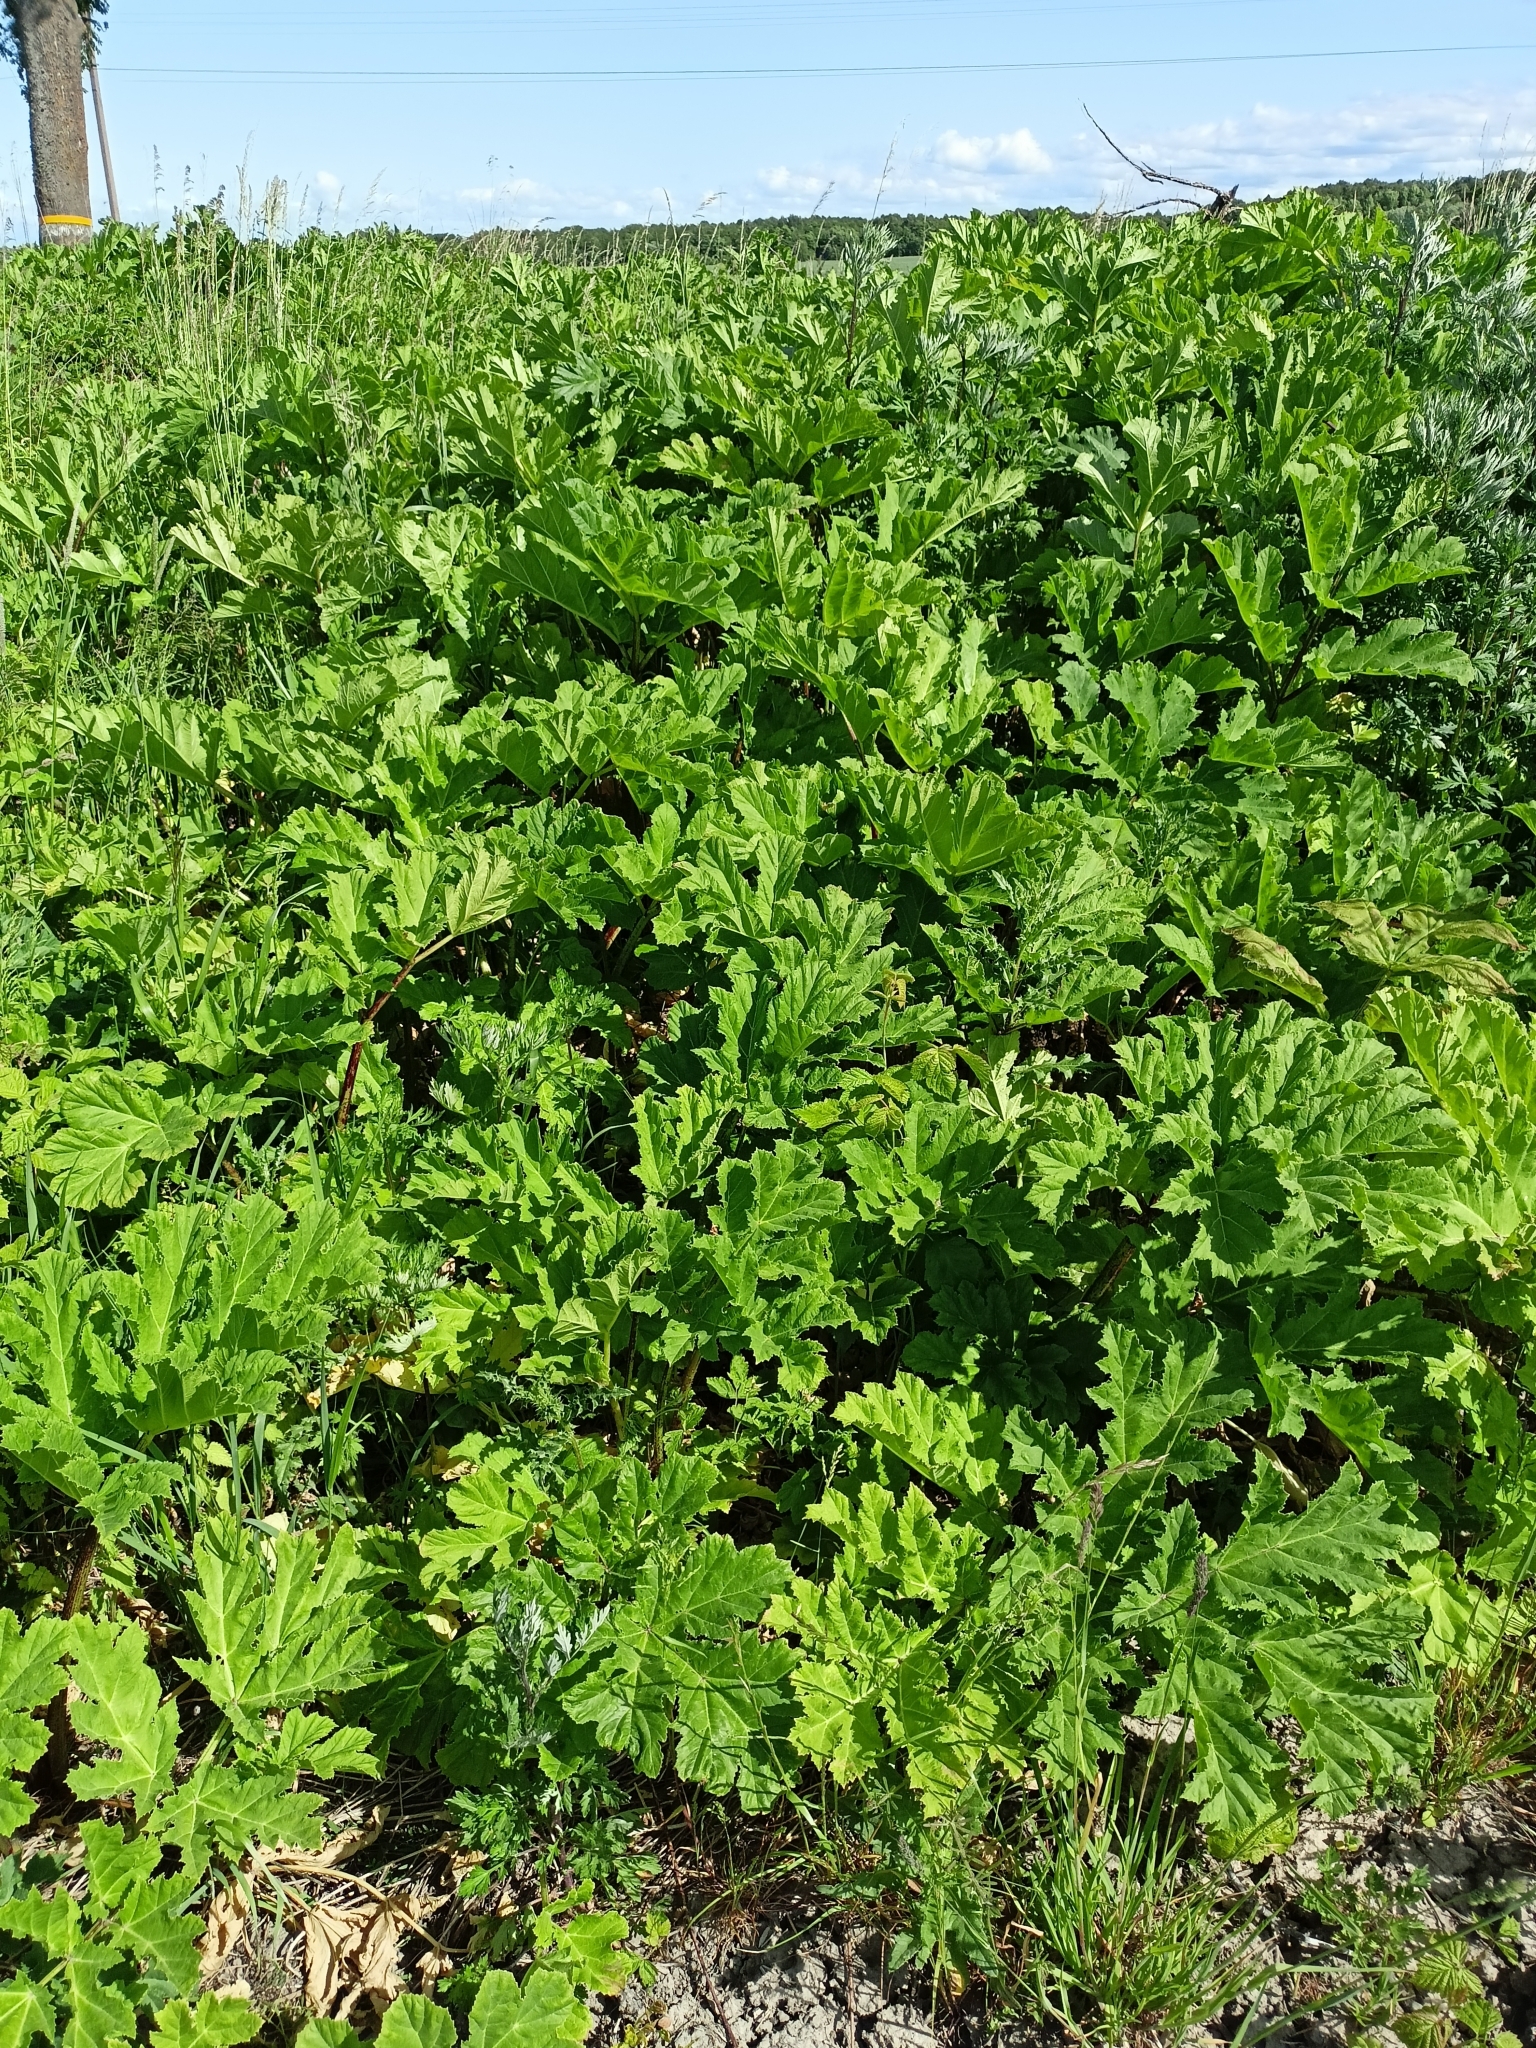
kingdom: Plantae
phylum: Tracheophyta
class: Magnoliopsida
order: Apiales
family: Apiaceae
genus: Heracleum
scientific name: Heracleum sosnowskyi
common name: Sosnowsky's hogweed
